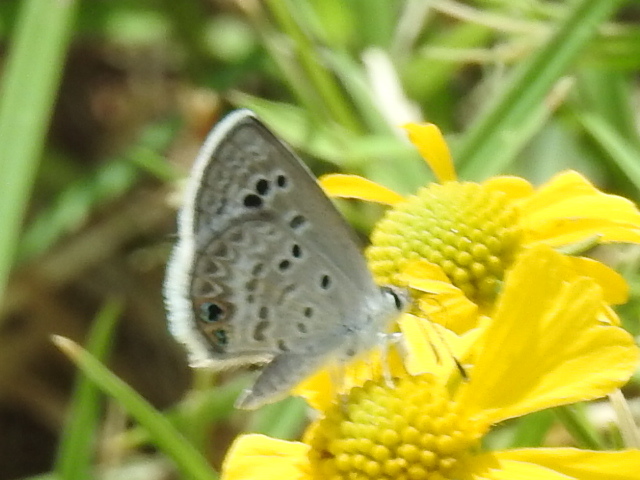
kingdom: Animalia
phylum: Arthropoda
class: Insecta
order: Lepidoptera
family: Lycaenidae
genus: Echinargus
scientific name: Echinargus isola
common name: Reakirt's blue
